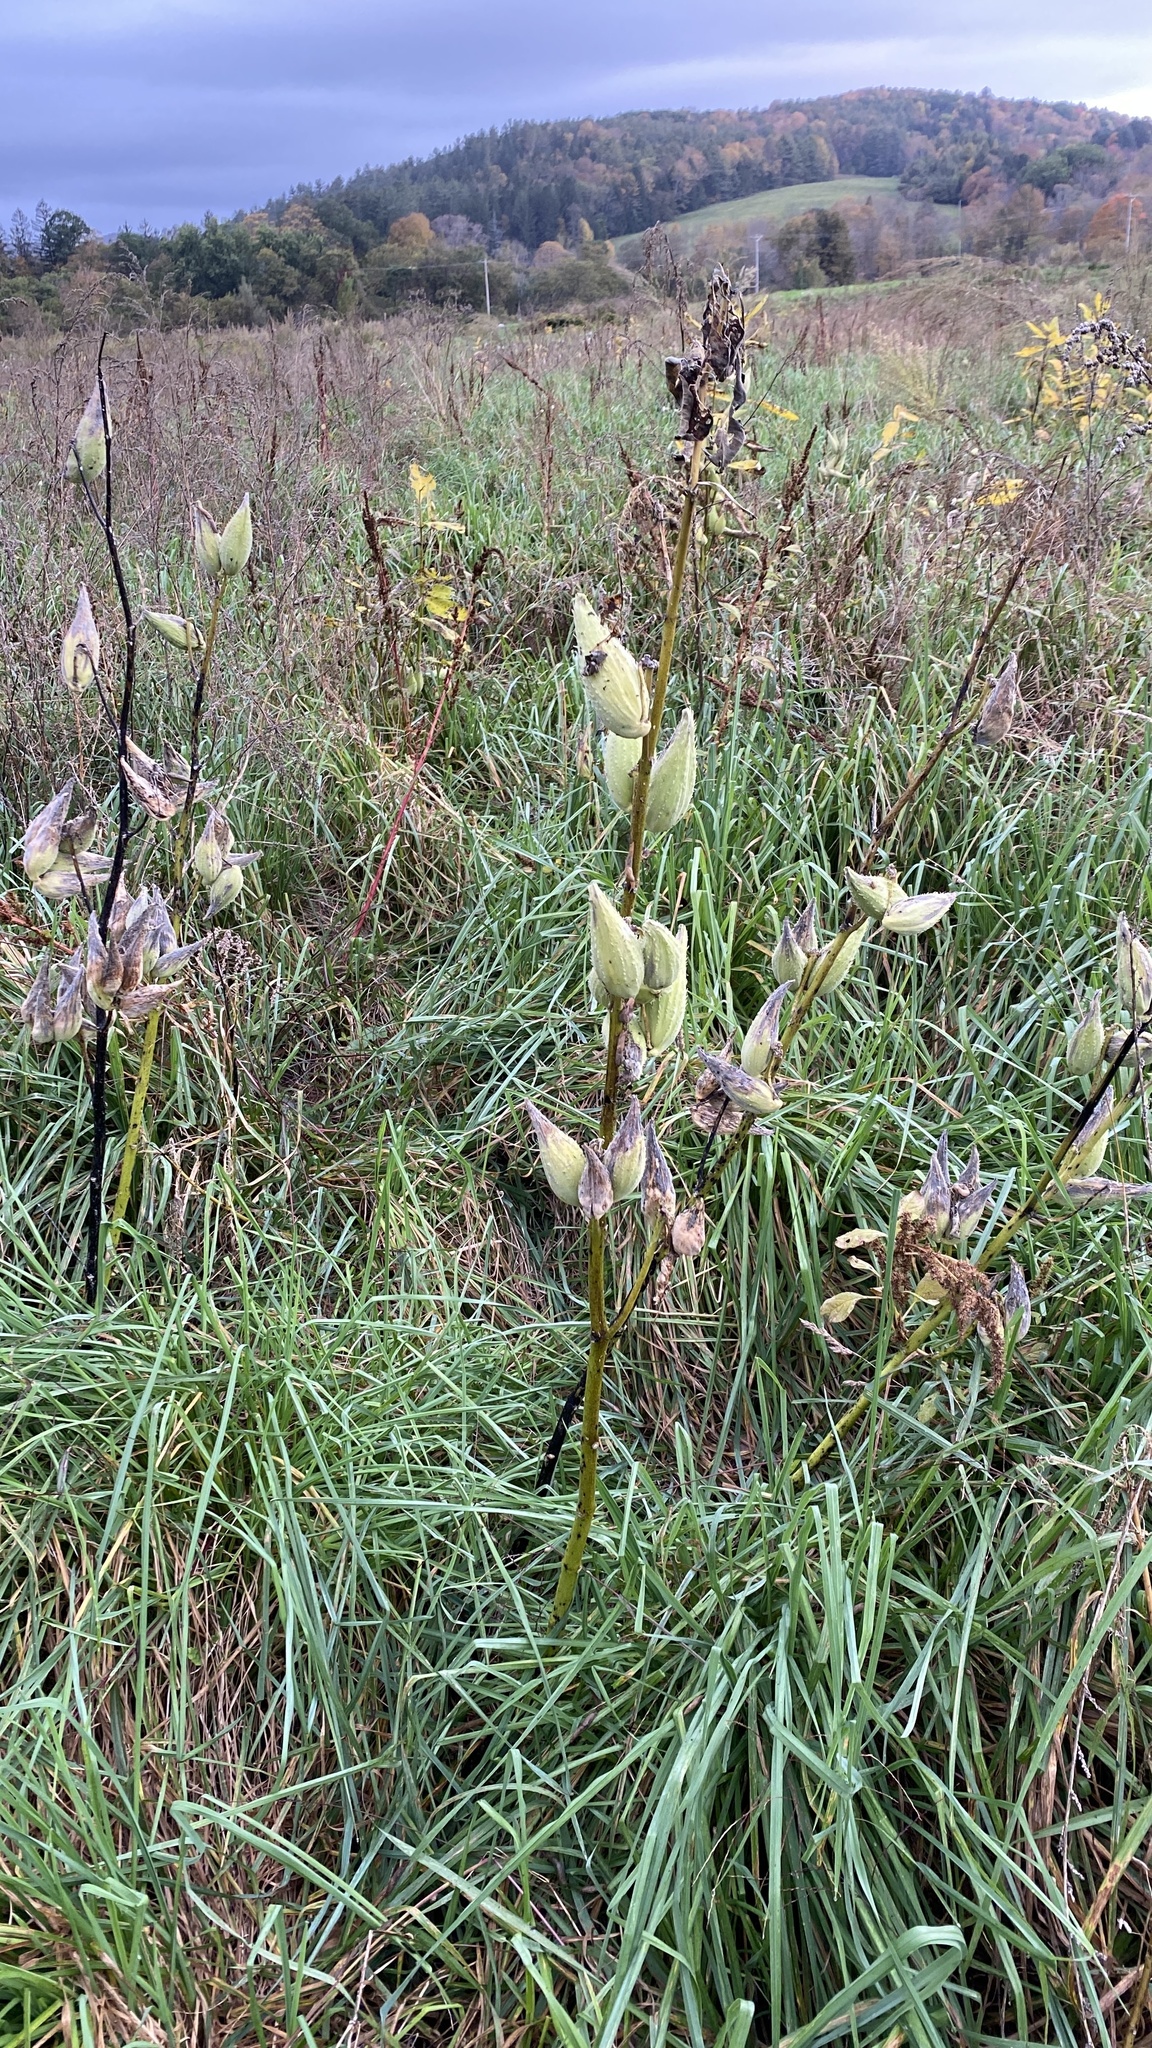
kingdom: Plantae
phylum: Tracheophyta
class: Magnoliopsida
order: Gentianales
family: Apocynaceae
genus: Asclepias
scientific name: Asclepias syriaca
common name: Common milkweed
